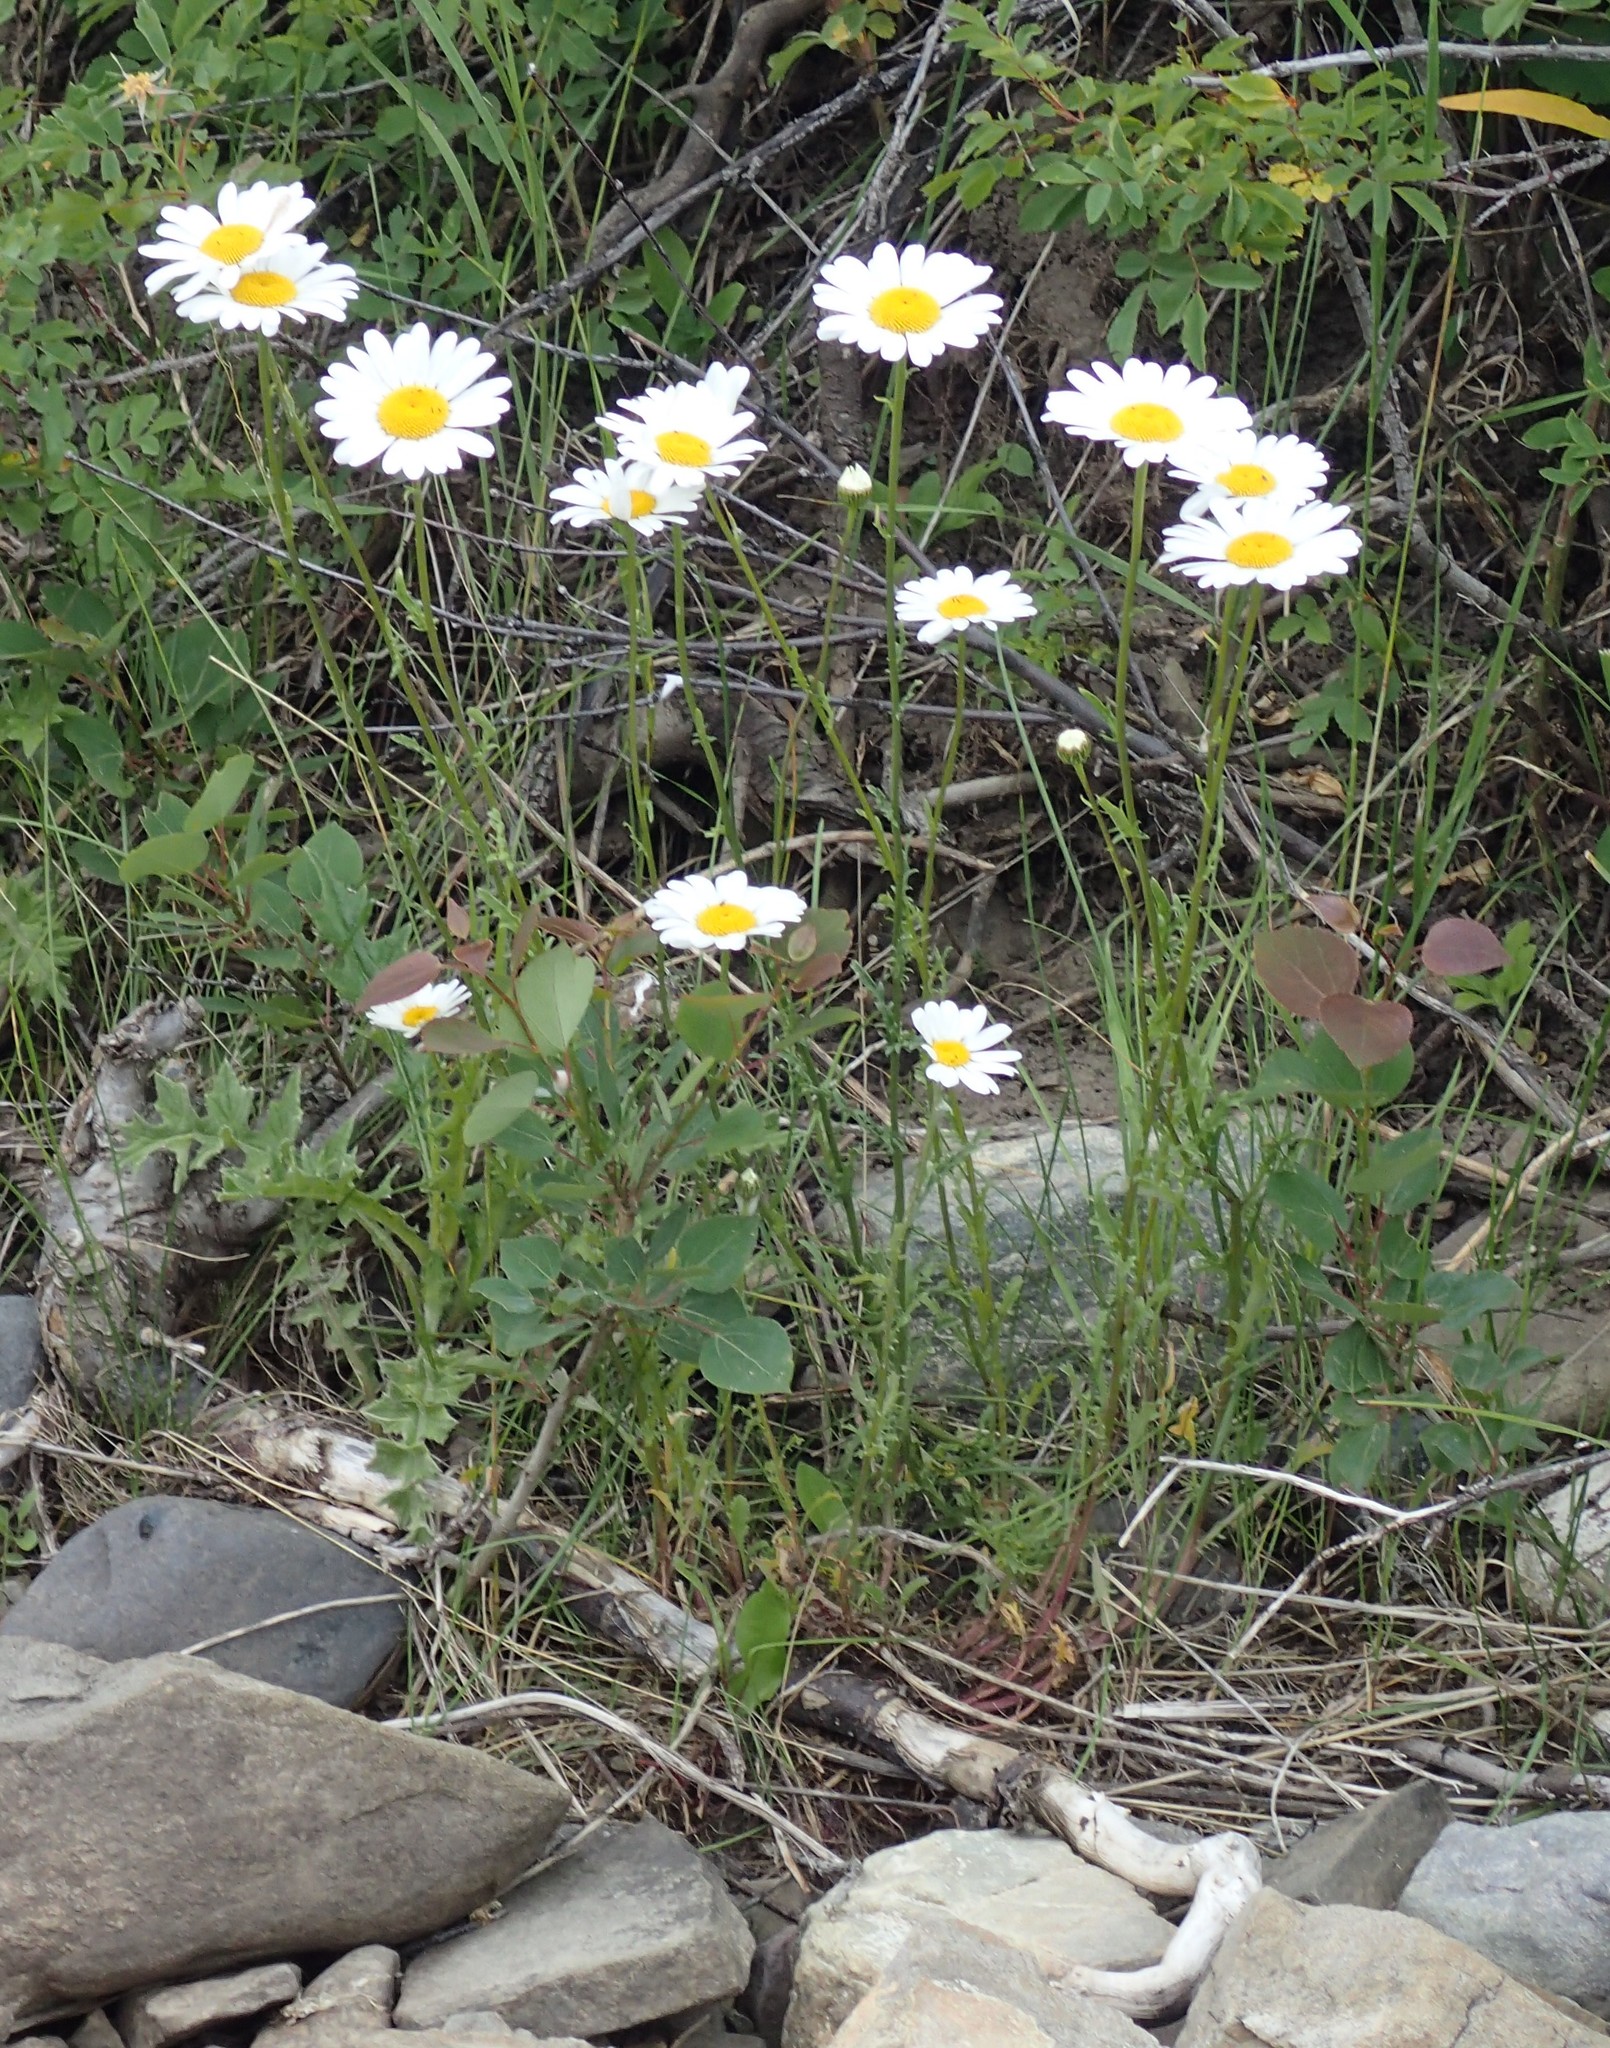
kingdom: Plantae
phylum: Tracheophyta
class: Magnoliopsida
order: Asterales
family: Asteraceae
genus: Leucanthemum
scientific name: Leucanthemum vulgare
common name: Oxeye daisy
